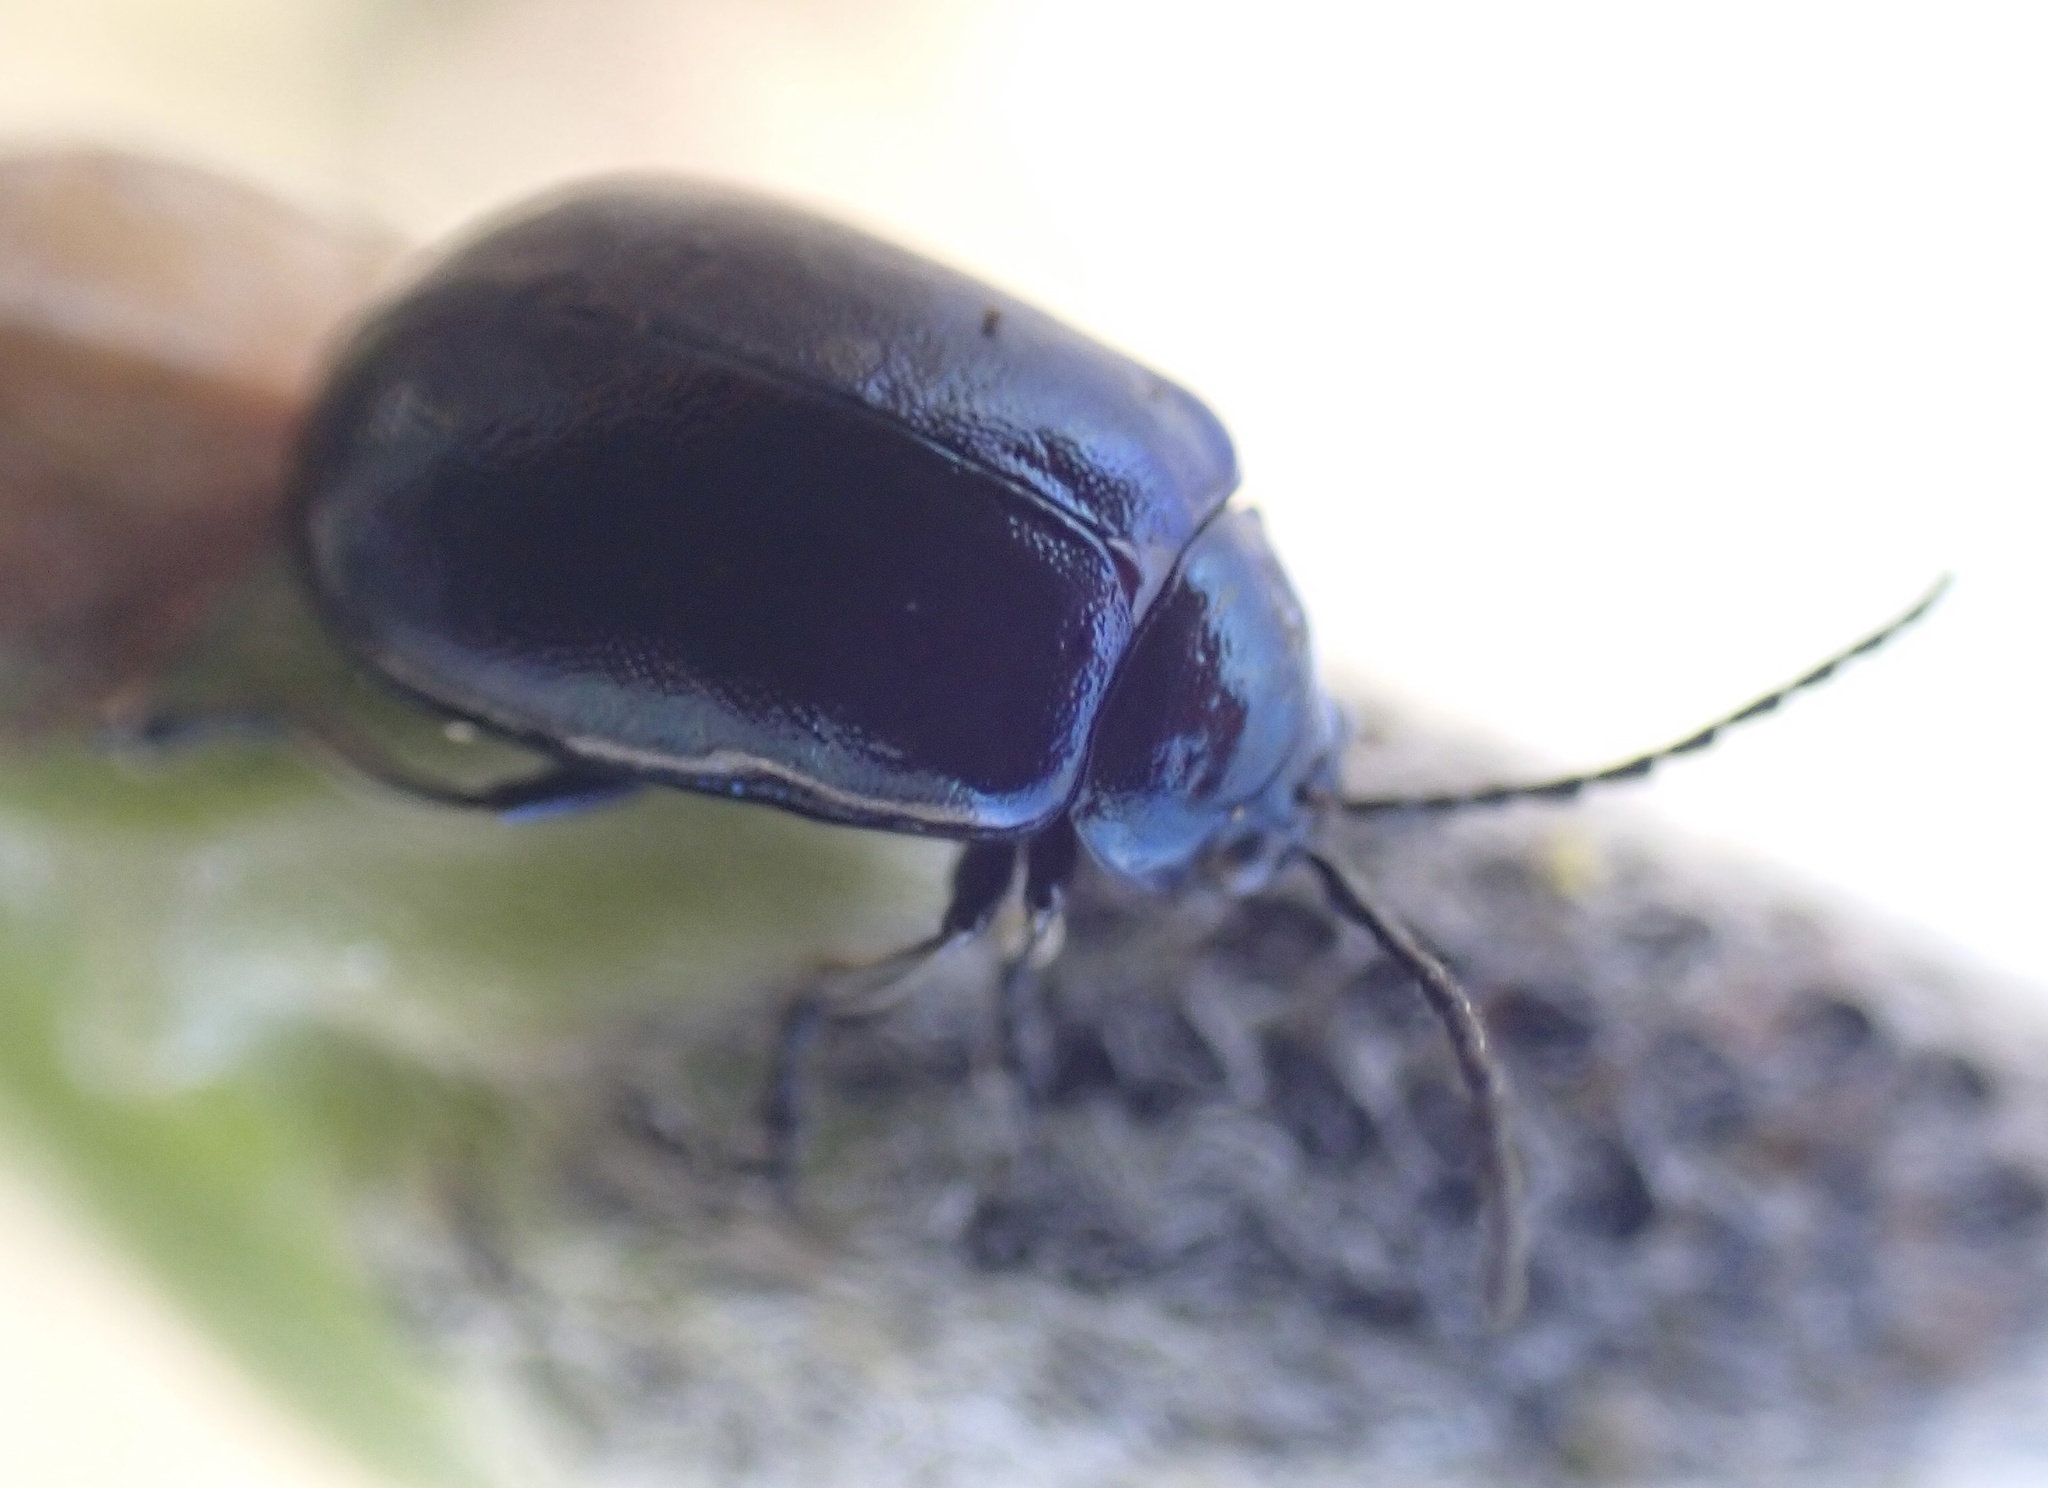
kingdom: Animalia
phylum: Arthropoda
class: Insecta
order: Coleoptera
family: Chrysomelidae
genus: Agelastica
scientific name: Agelastica alni
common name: Alder leaf beetle
